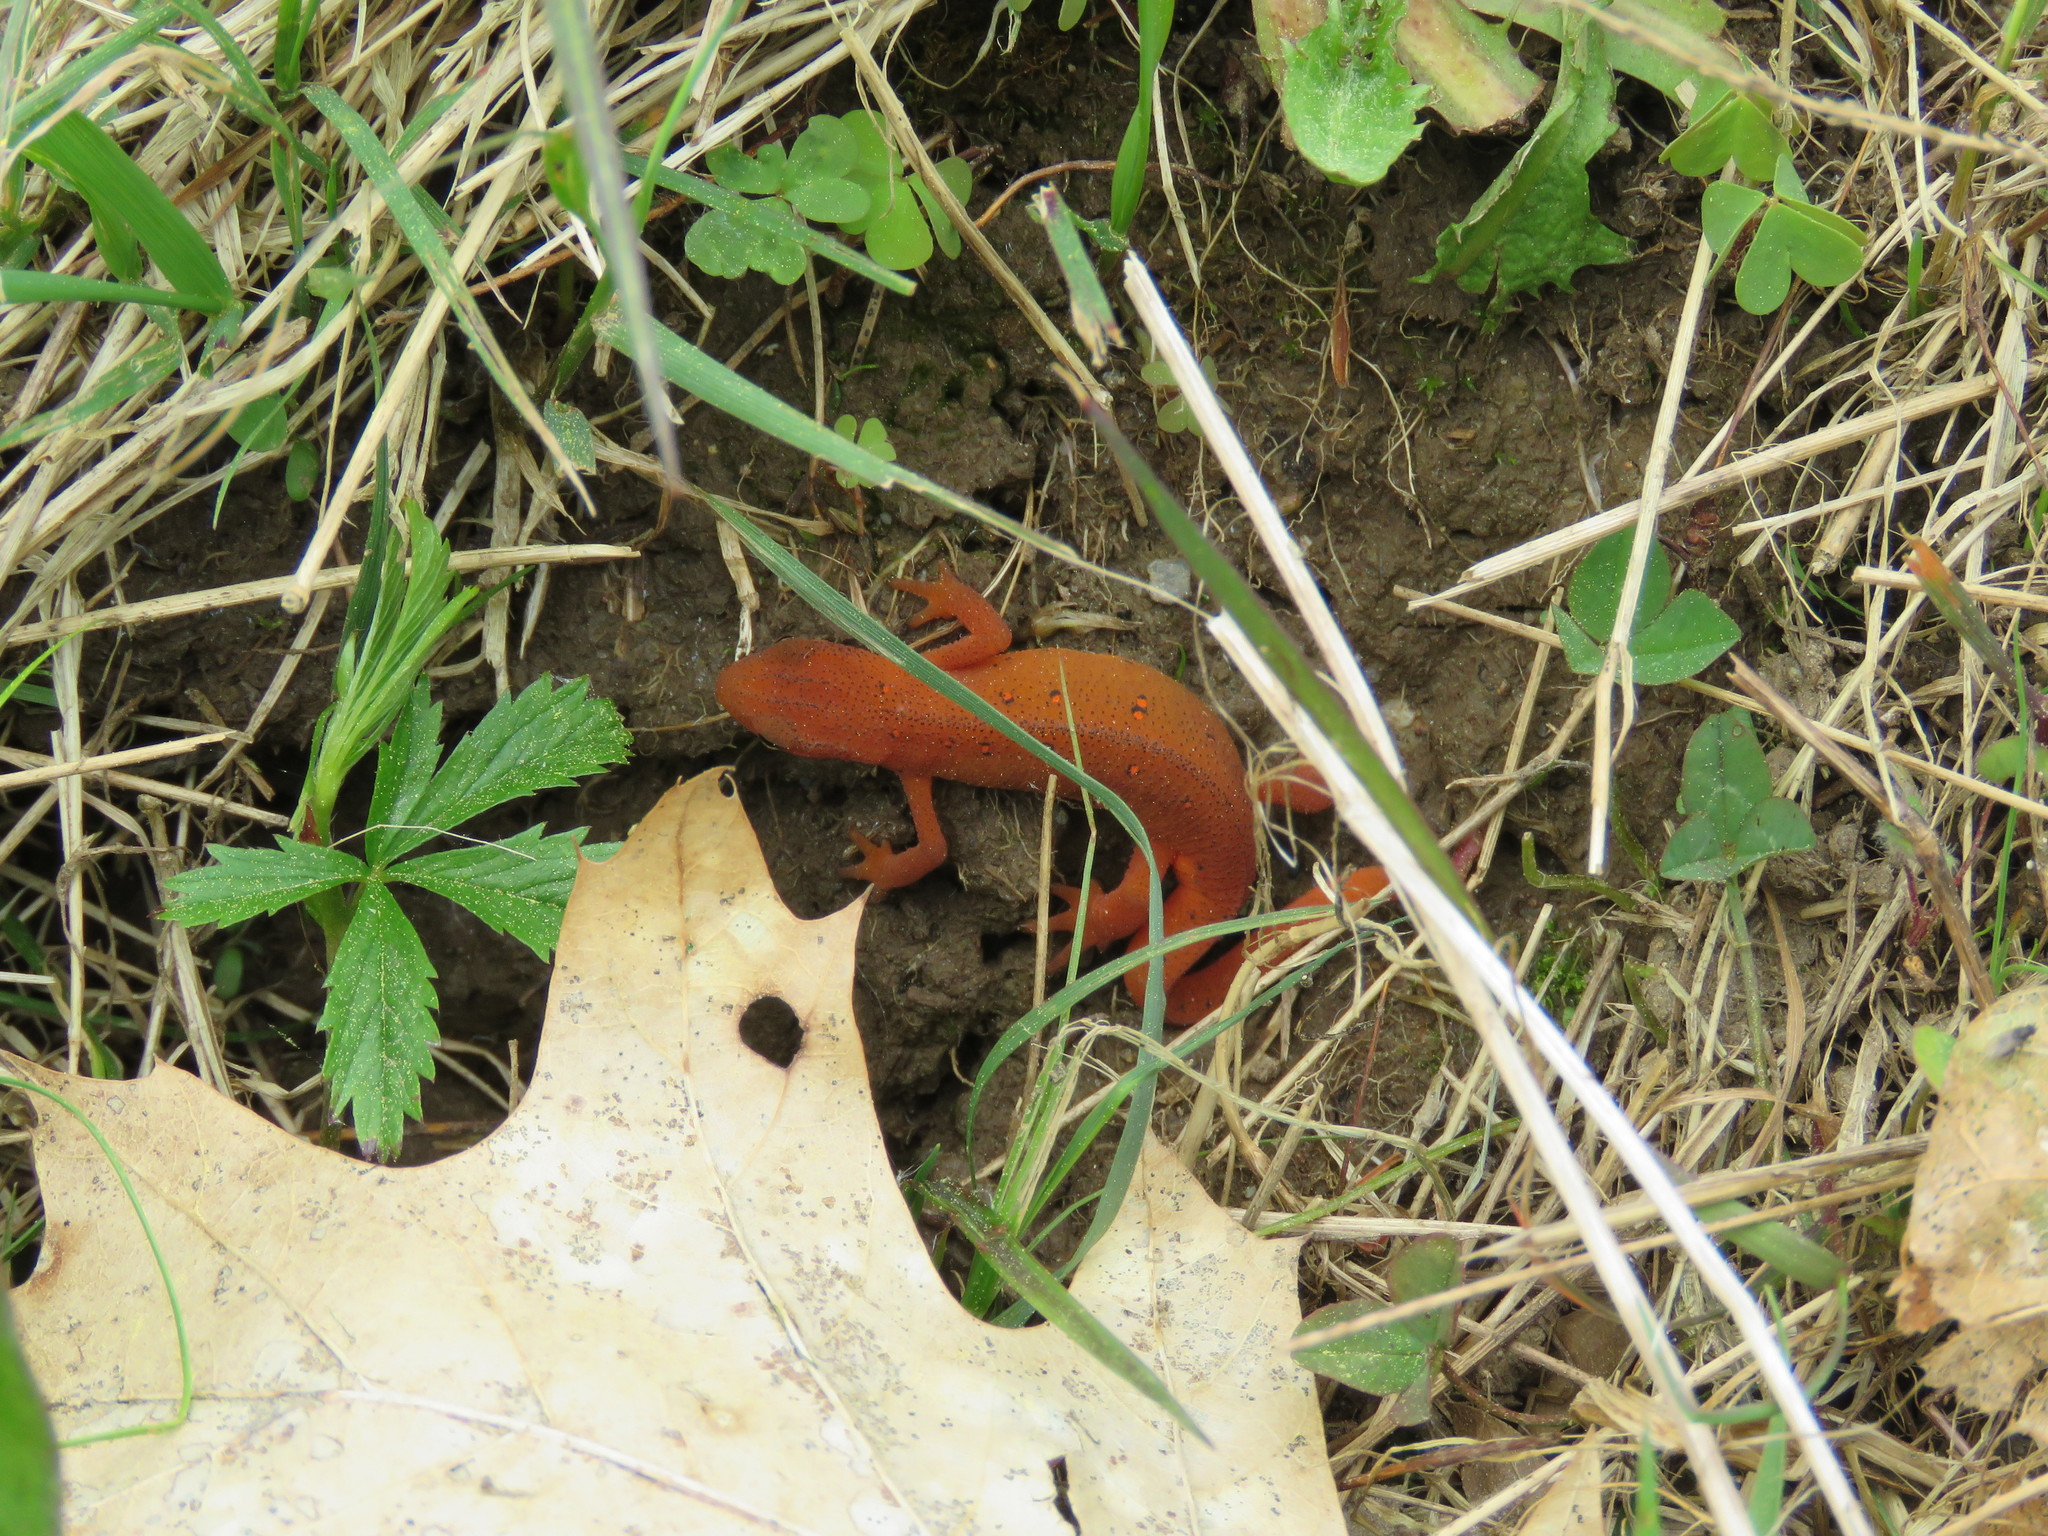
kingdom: Animalia
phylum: Chordata
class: Amphibia
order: Caudata
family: Salamandridae
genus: Notophthalmus
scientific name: Notophthalmus viridescens
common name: Eastern newt
